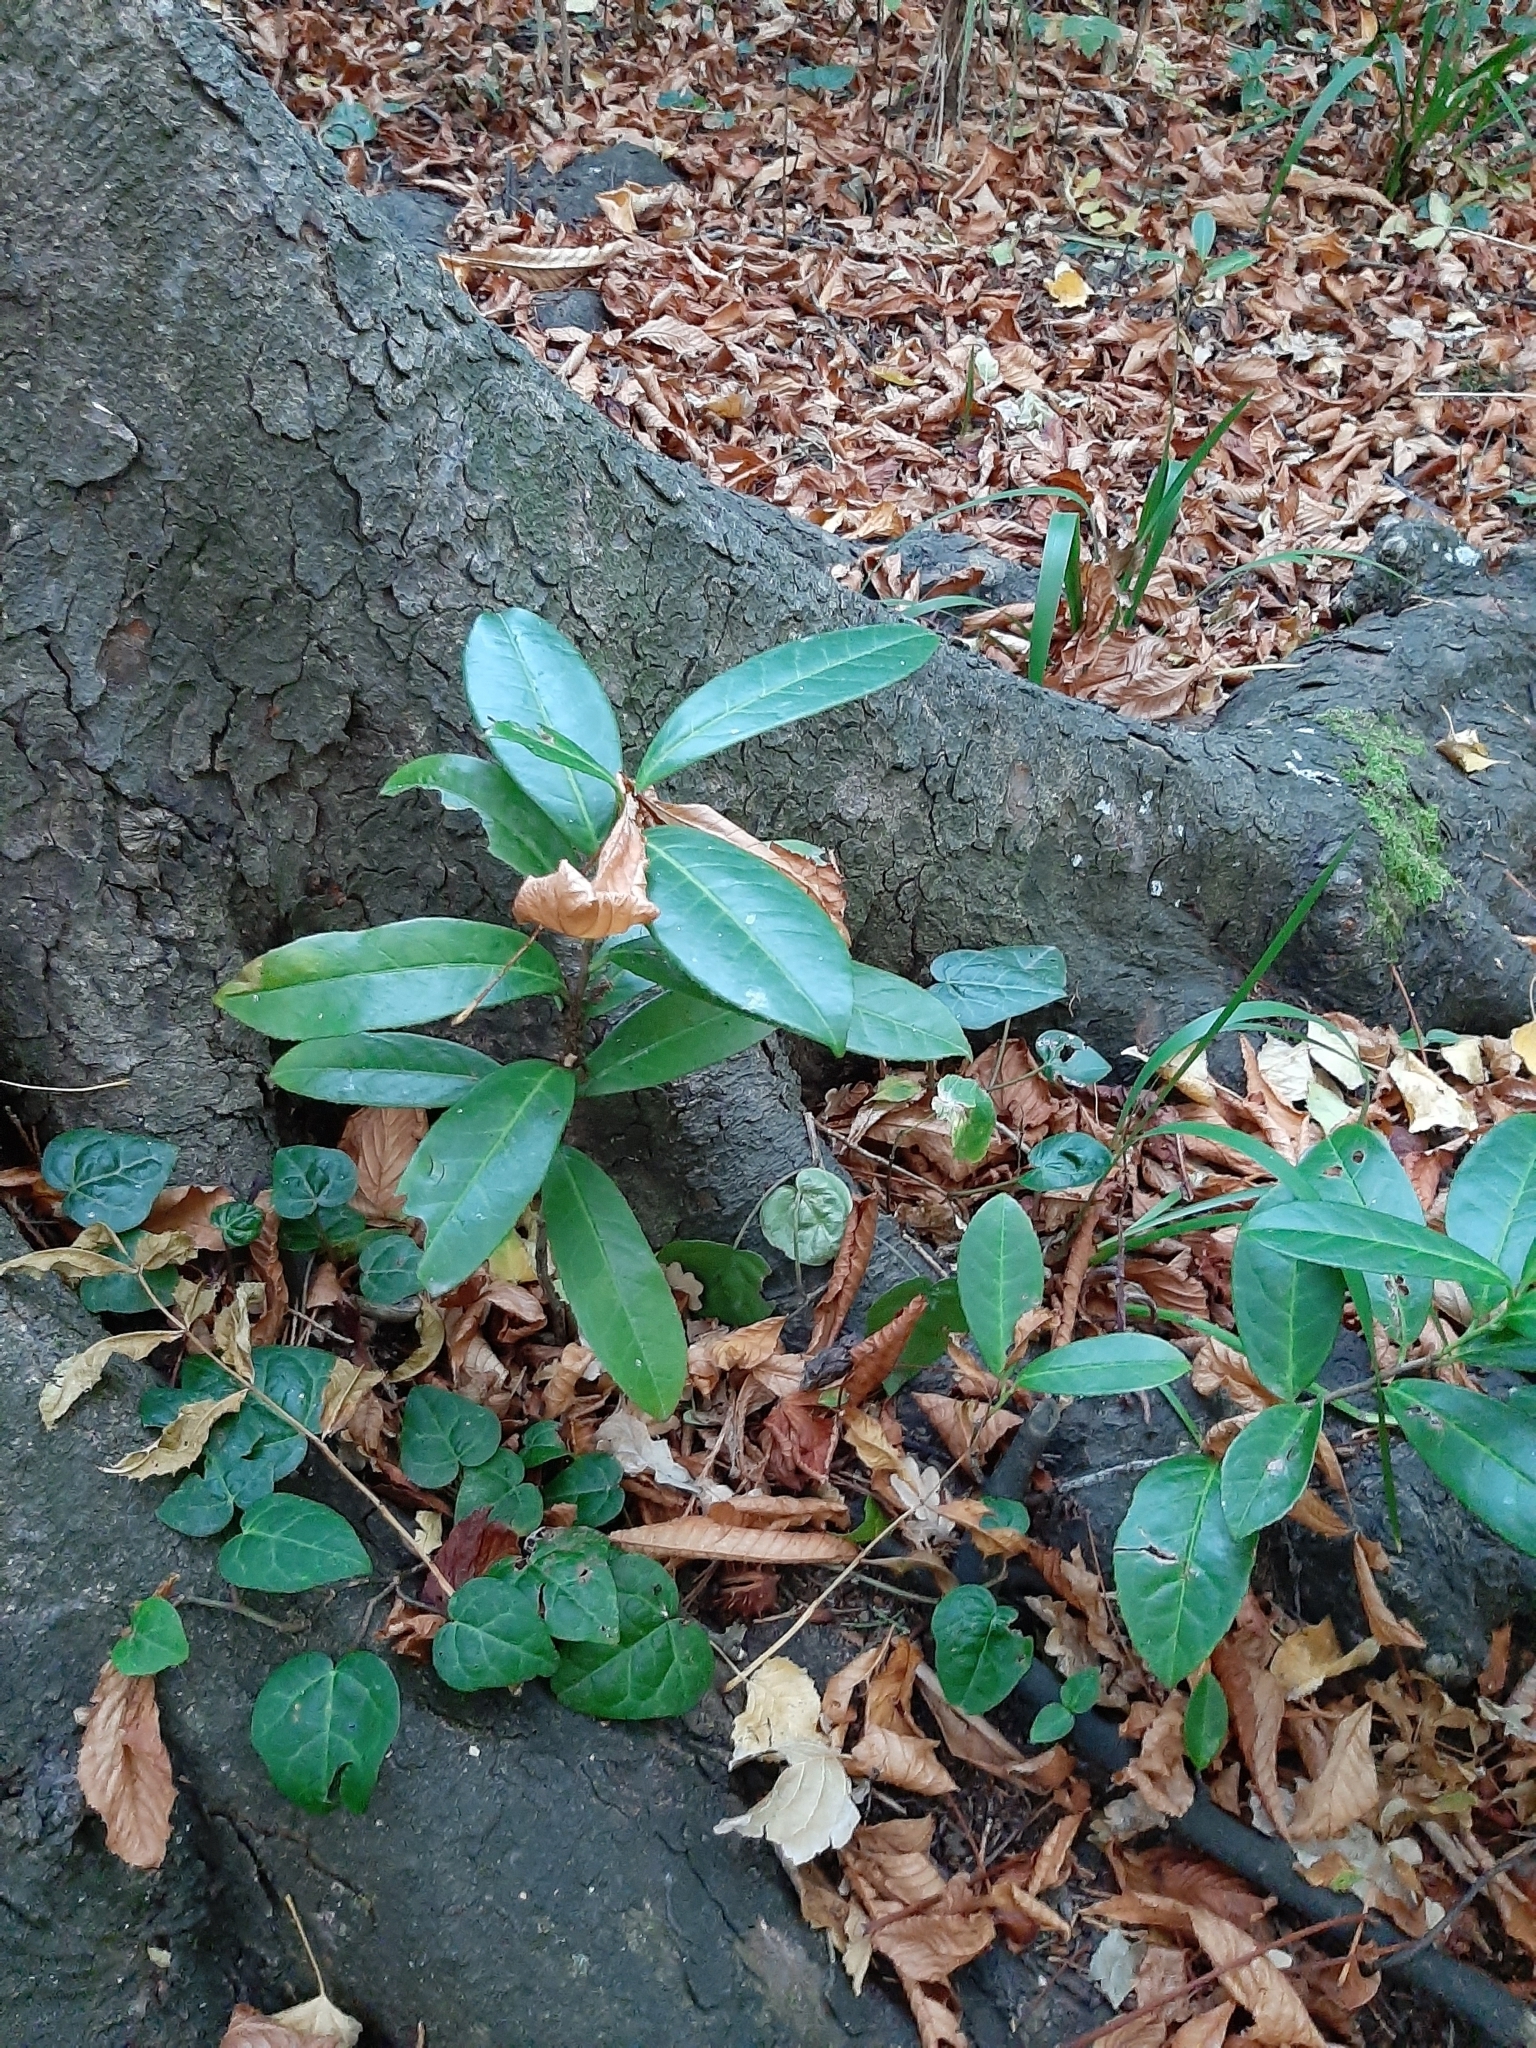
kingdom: Plantae
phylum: Tracheophyta
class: Magnoliopsida
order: Rosales
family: Rosaceae
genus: Prunus
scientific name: Prunus laurocerasus
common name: Cherry laurel
